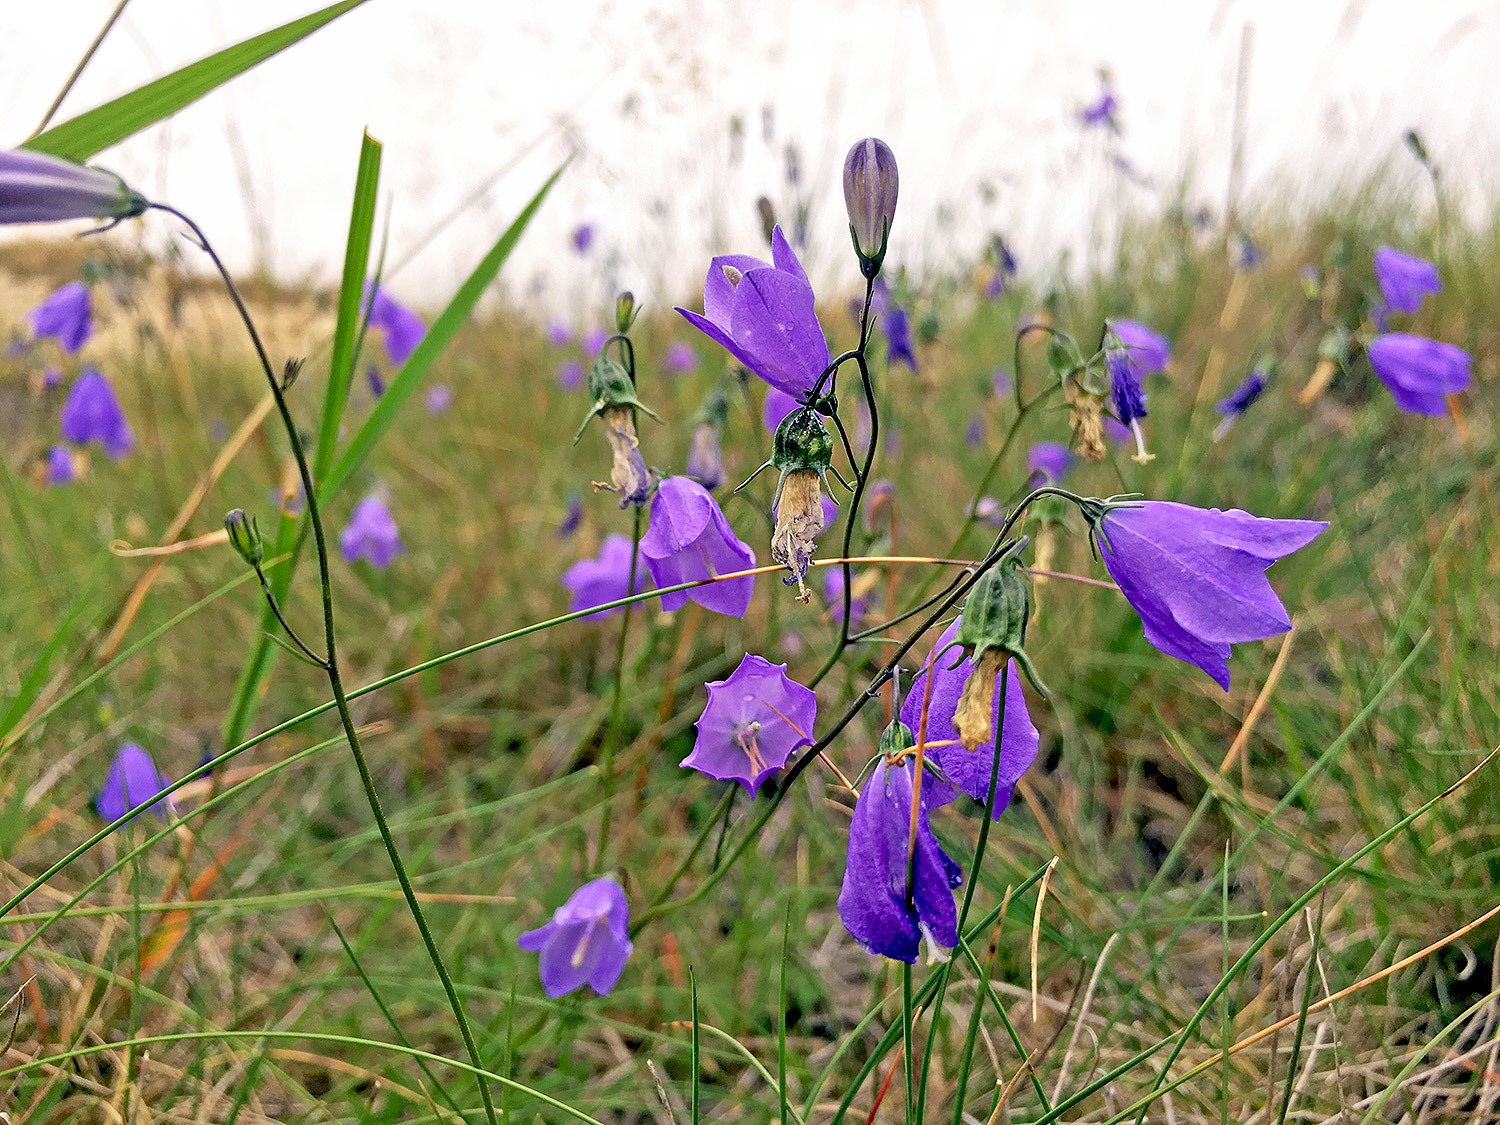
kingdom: Plantae
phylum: Tracheophyta
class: Magnoliopsida
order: Asterales
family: Campanulaceae
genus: Campanula
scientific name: Campanula rotundifolia
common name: Harebell
